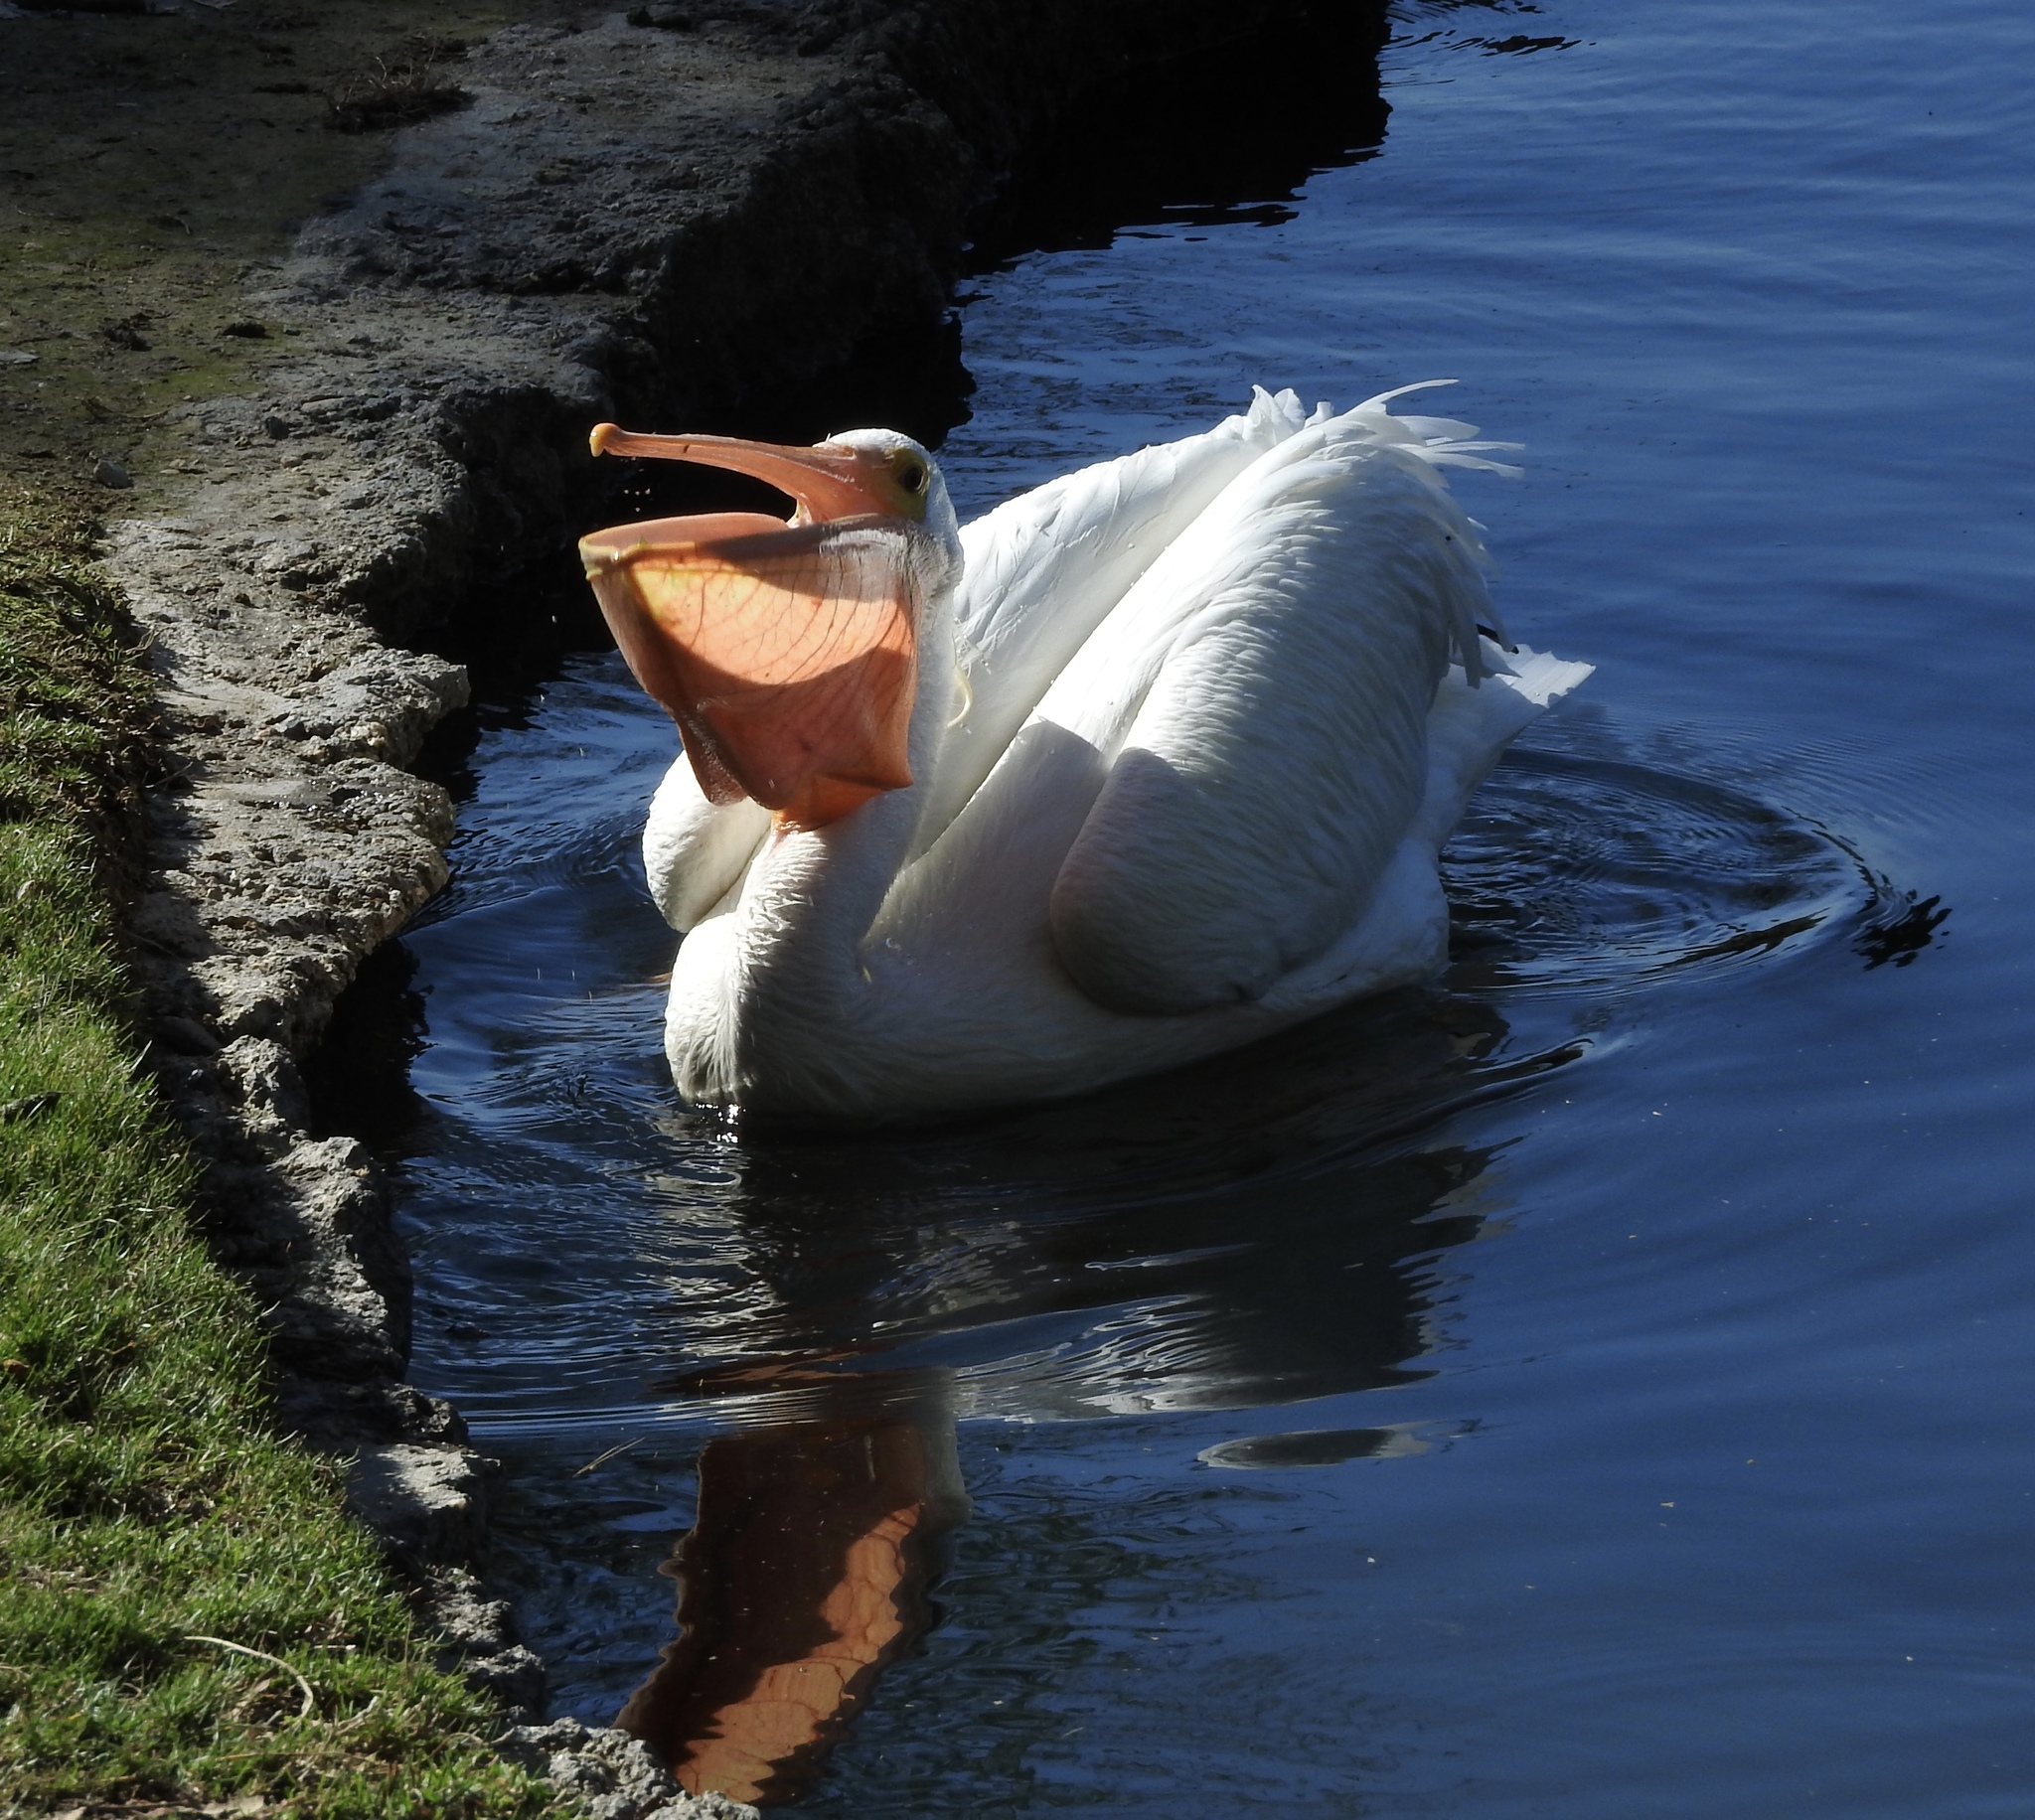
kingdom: Animalia
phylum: Chordata
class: Aves
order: Pelecaniformes
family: Pelecanidae
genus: Pelecanus
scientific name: Pelecanus erythrorhynchos
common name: American white pelican
